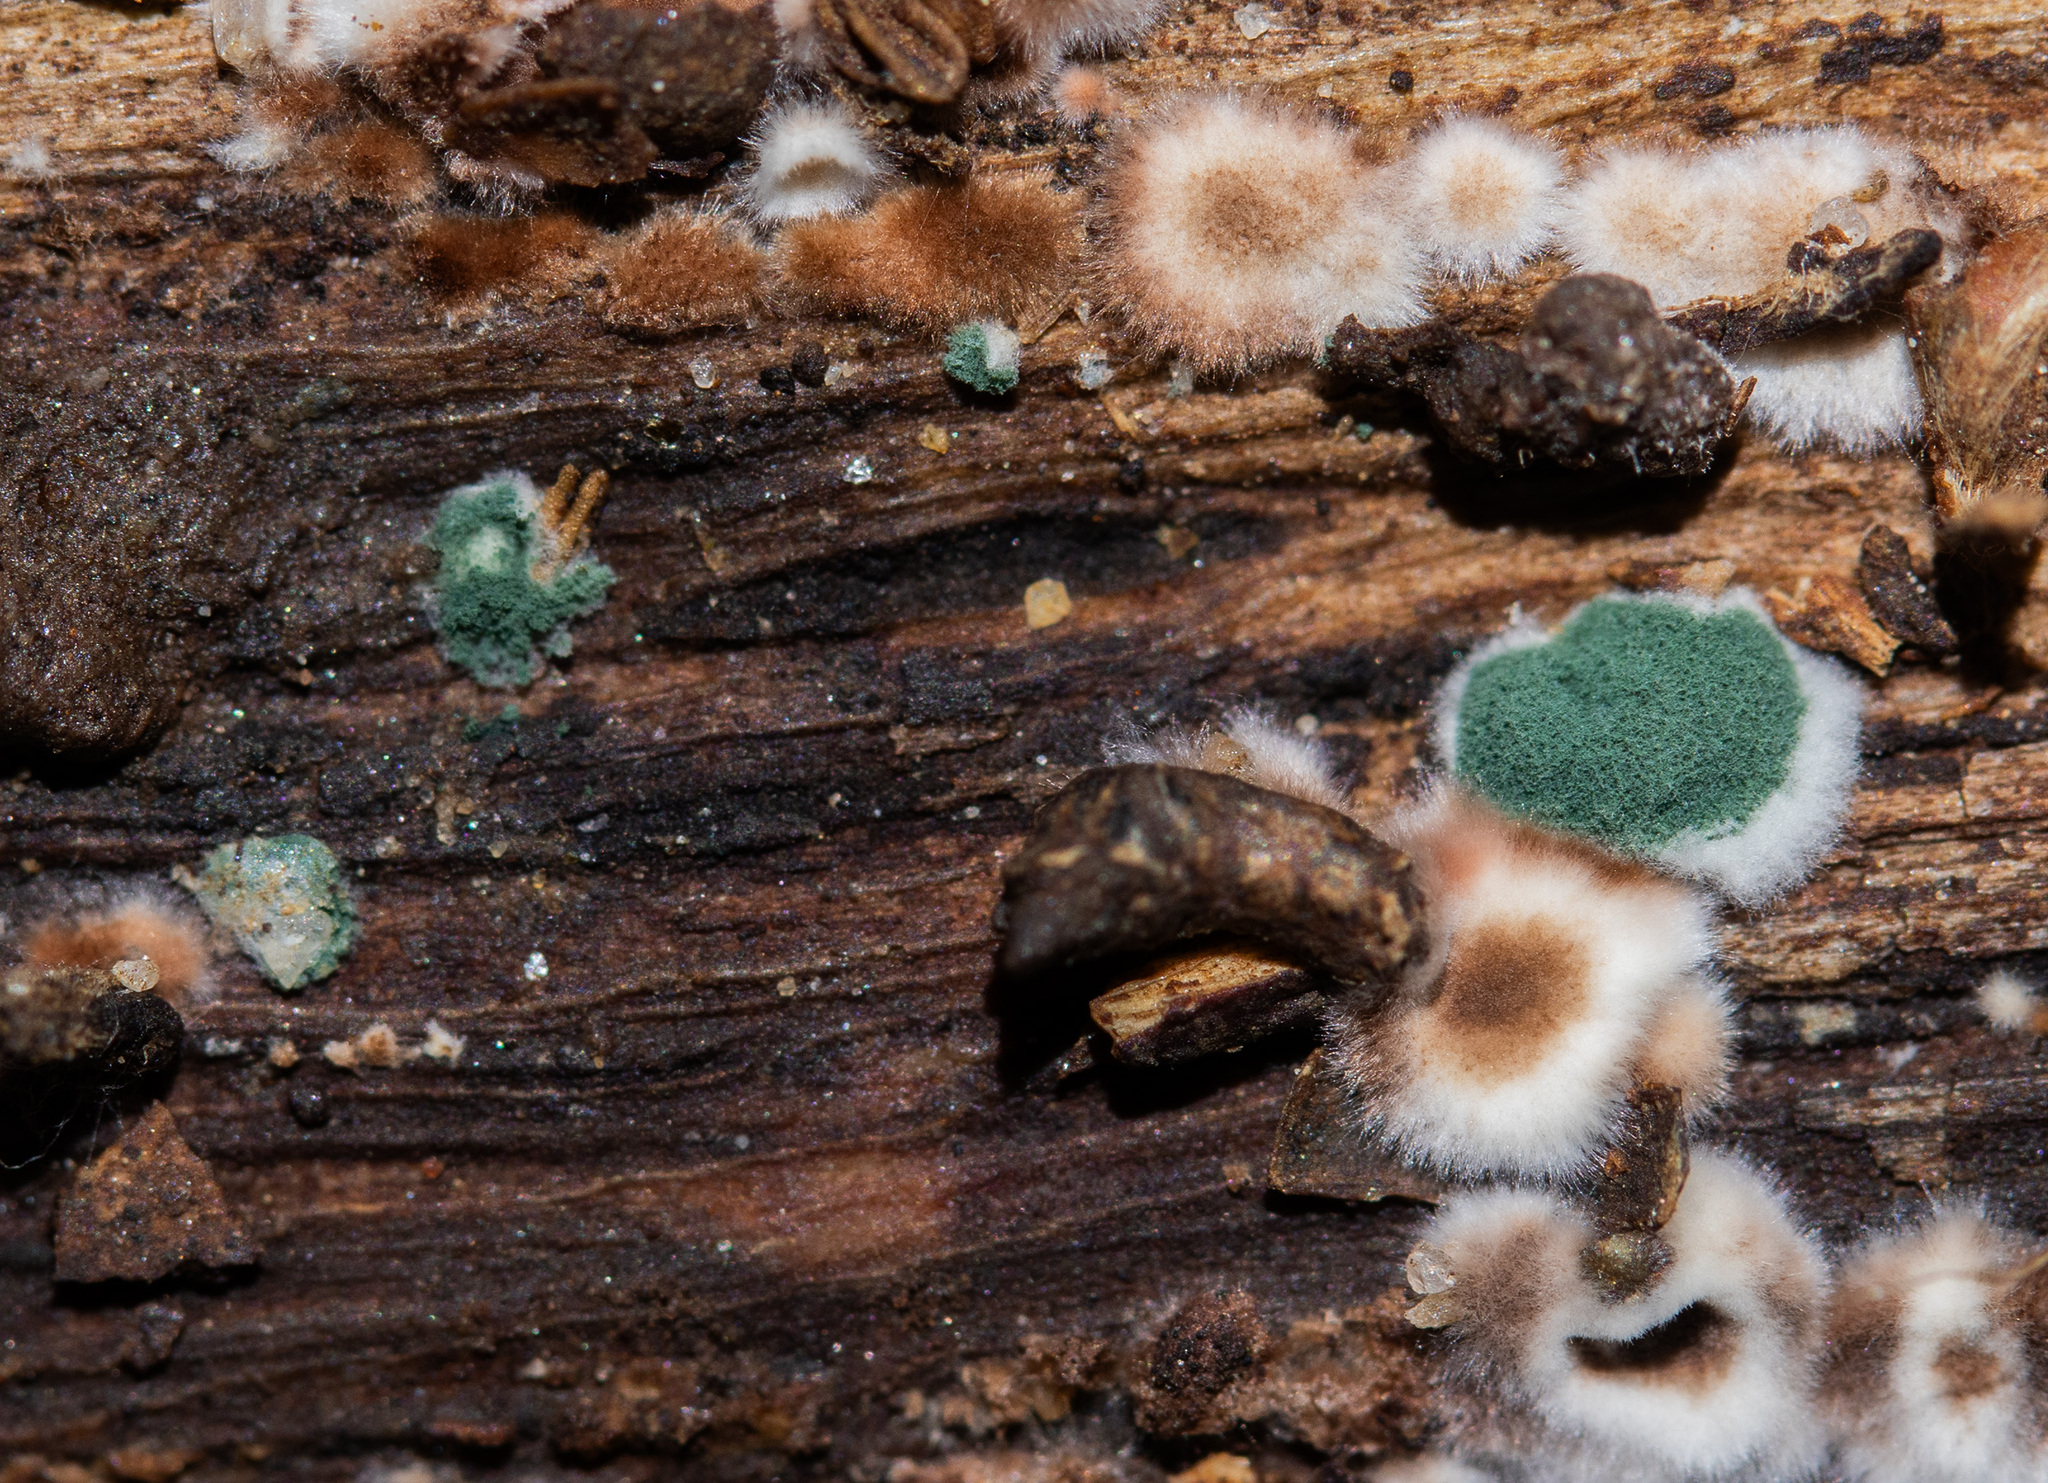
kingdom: Fungi
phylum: Ascomycota
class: Sordariomycetes
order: Hypocreales
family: Hypocreaceae
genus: Trichoderma
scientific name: Trichoderma viride
